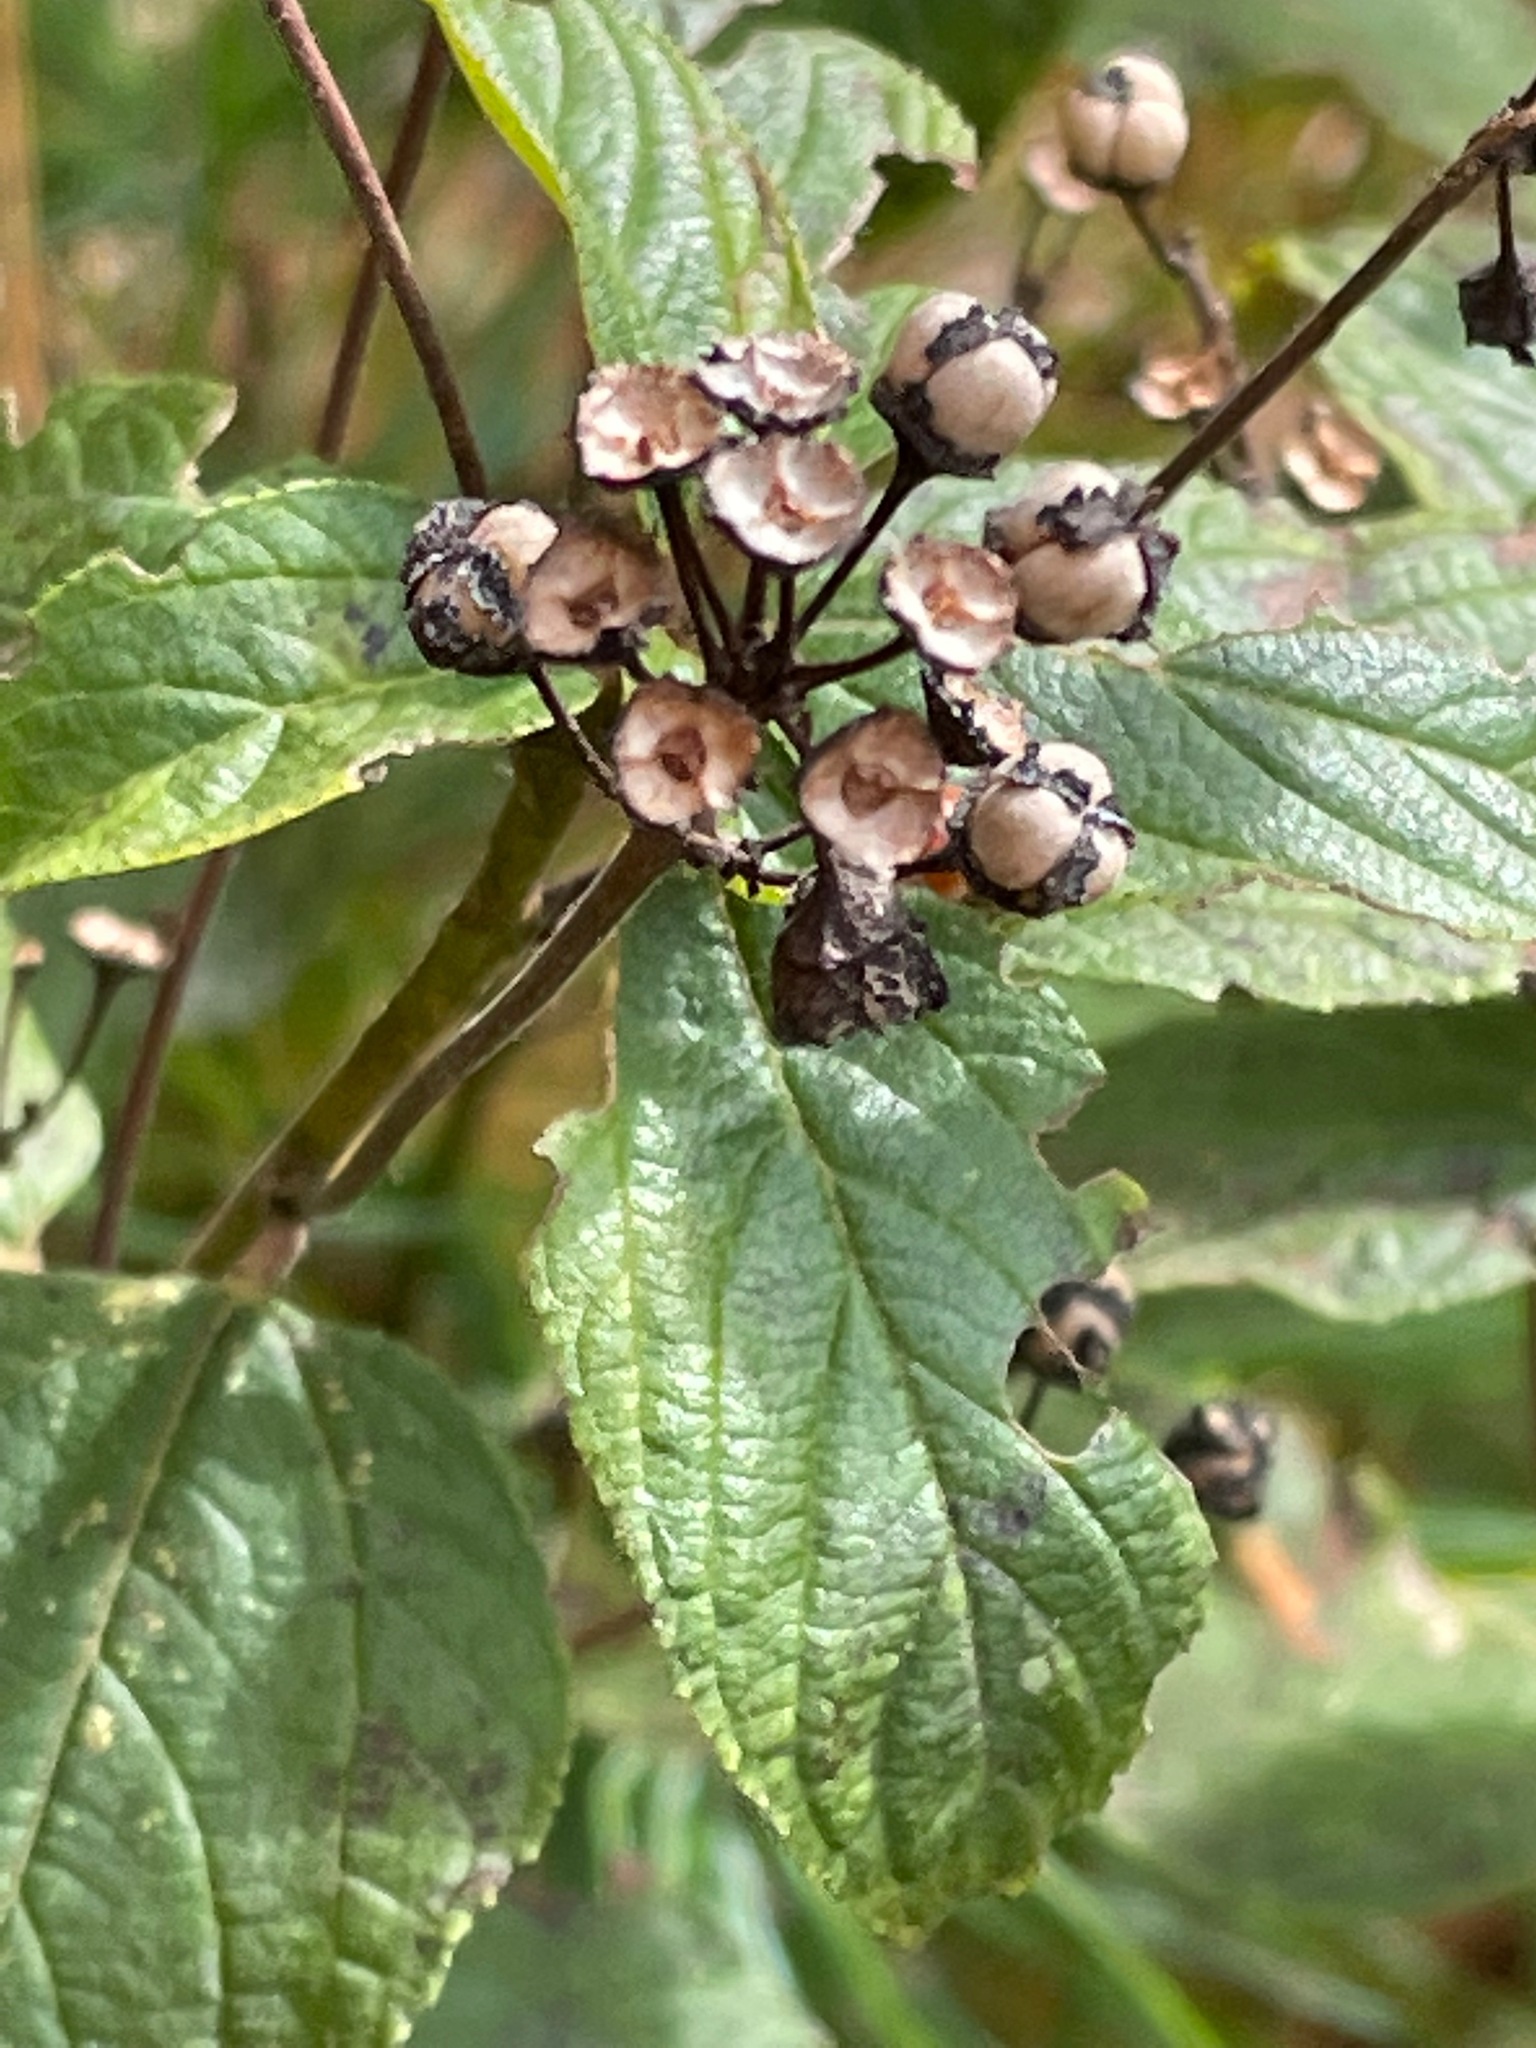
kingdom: Plantae
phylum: Tracheophyta
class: Magnoliopsida
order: Rosales
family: Rhamnaceae
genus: Ceanothus
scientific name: Ceanothus americanus
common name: Redroot
